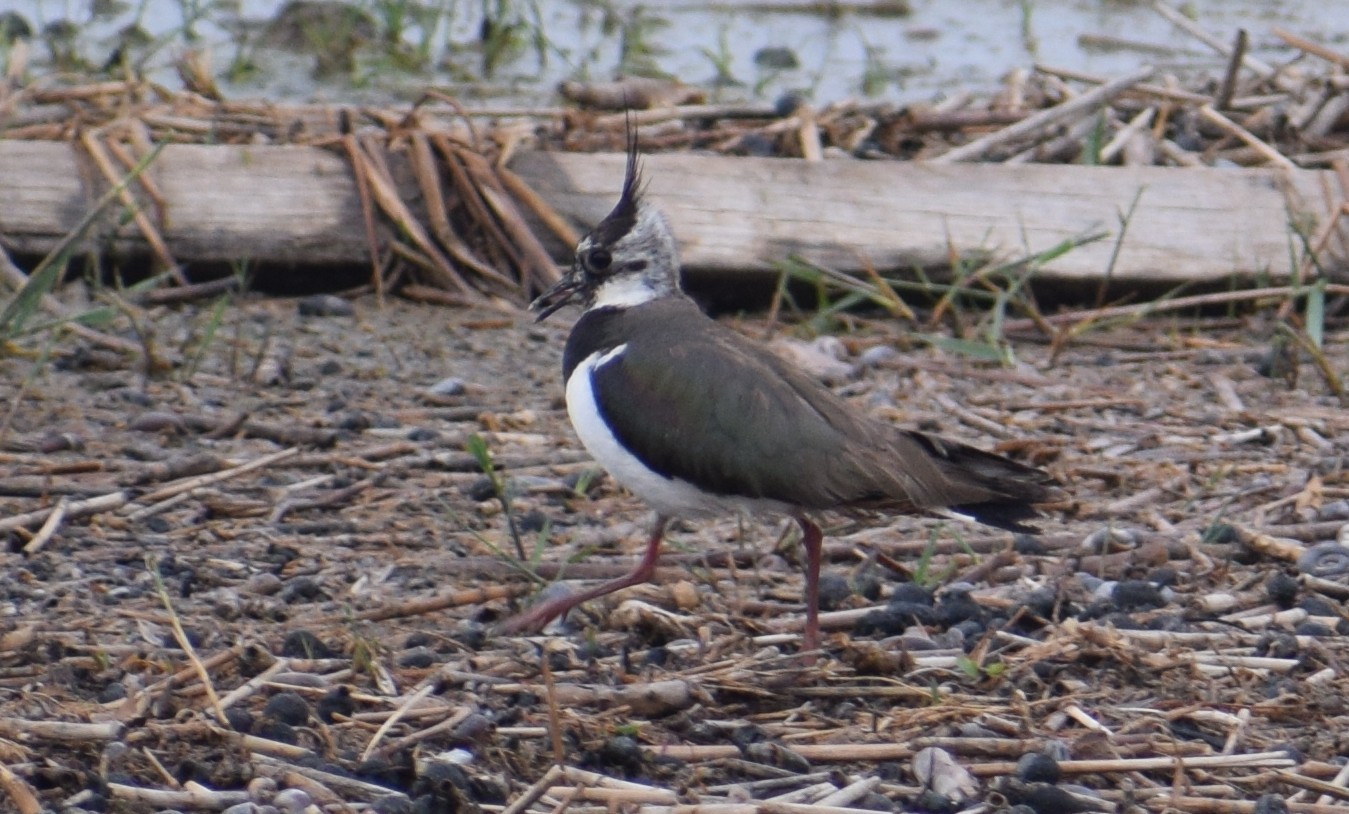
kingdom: Animalia
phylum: Chordata
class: Aves
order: Charadriiformes
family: Charadriidae
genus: Vanellus
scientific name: Vanellus vanellus
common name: Northern lapwing
